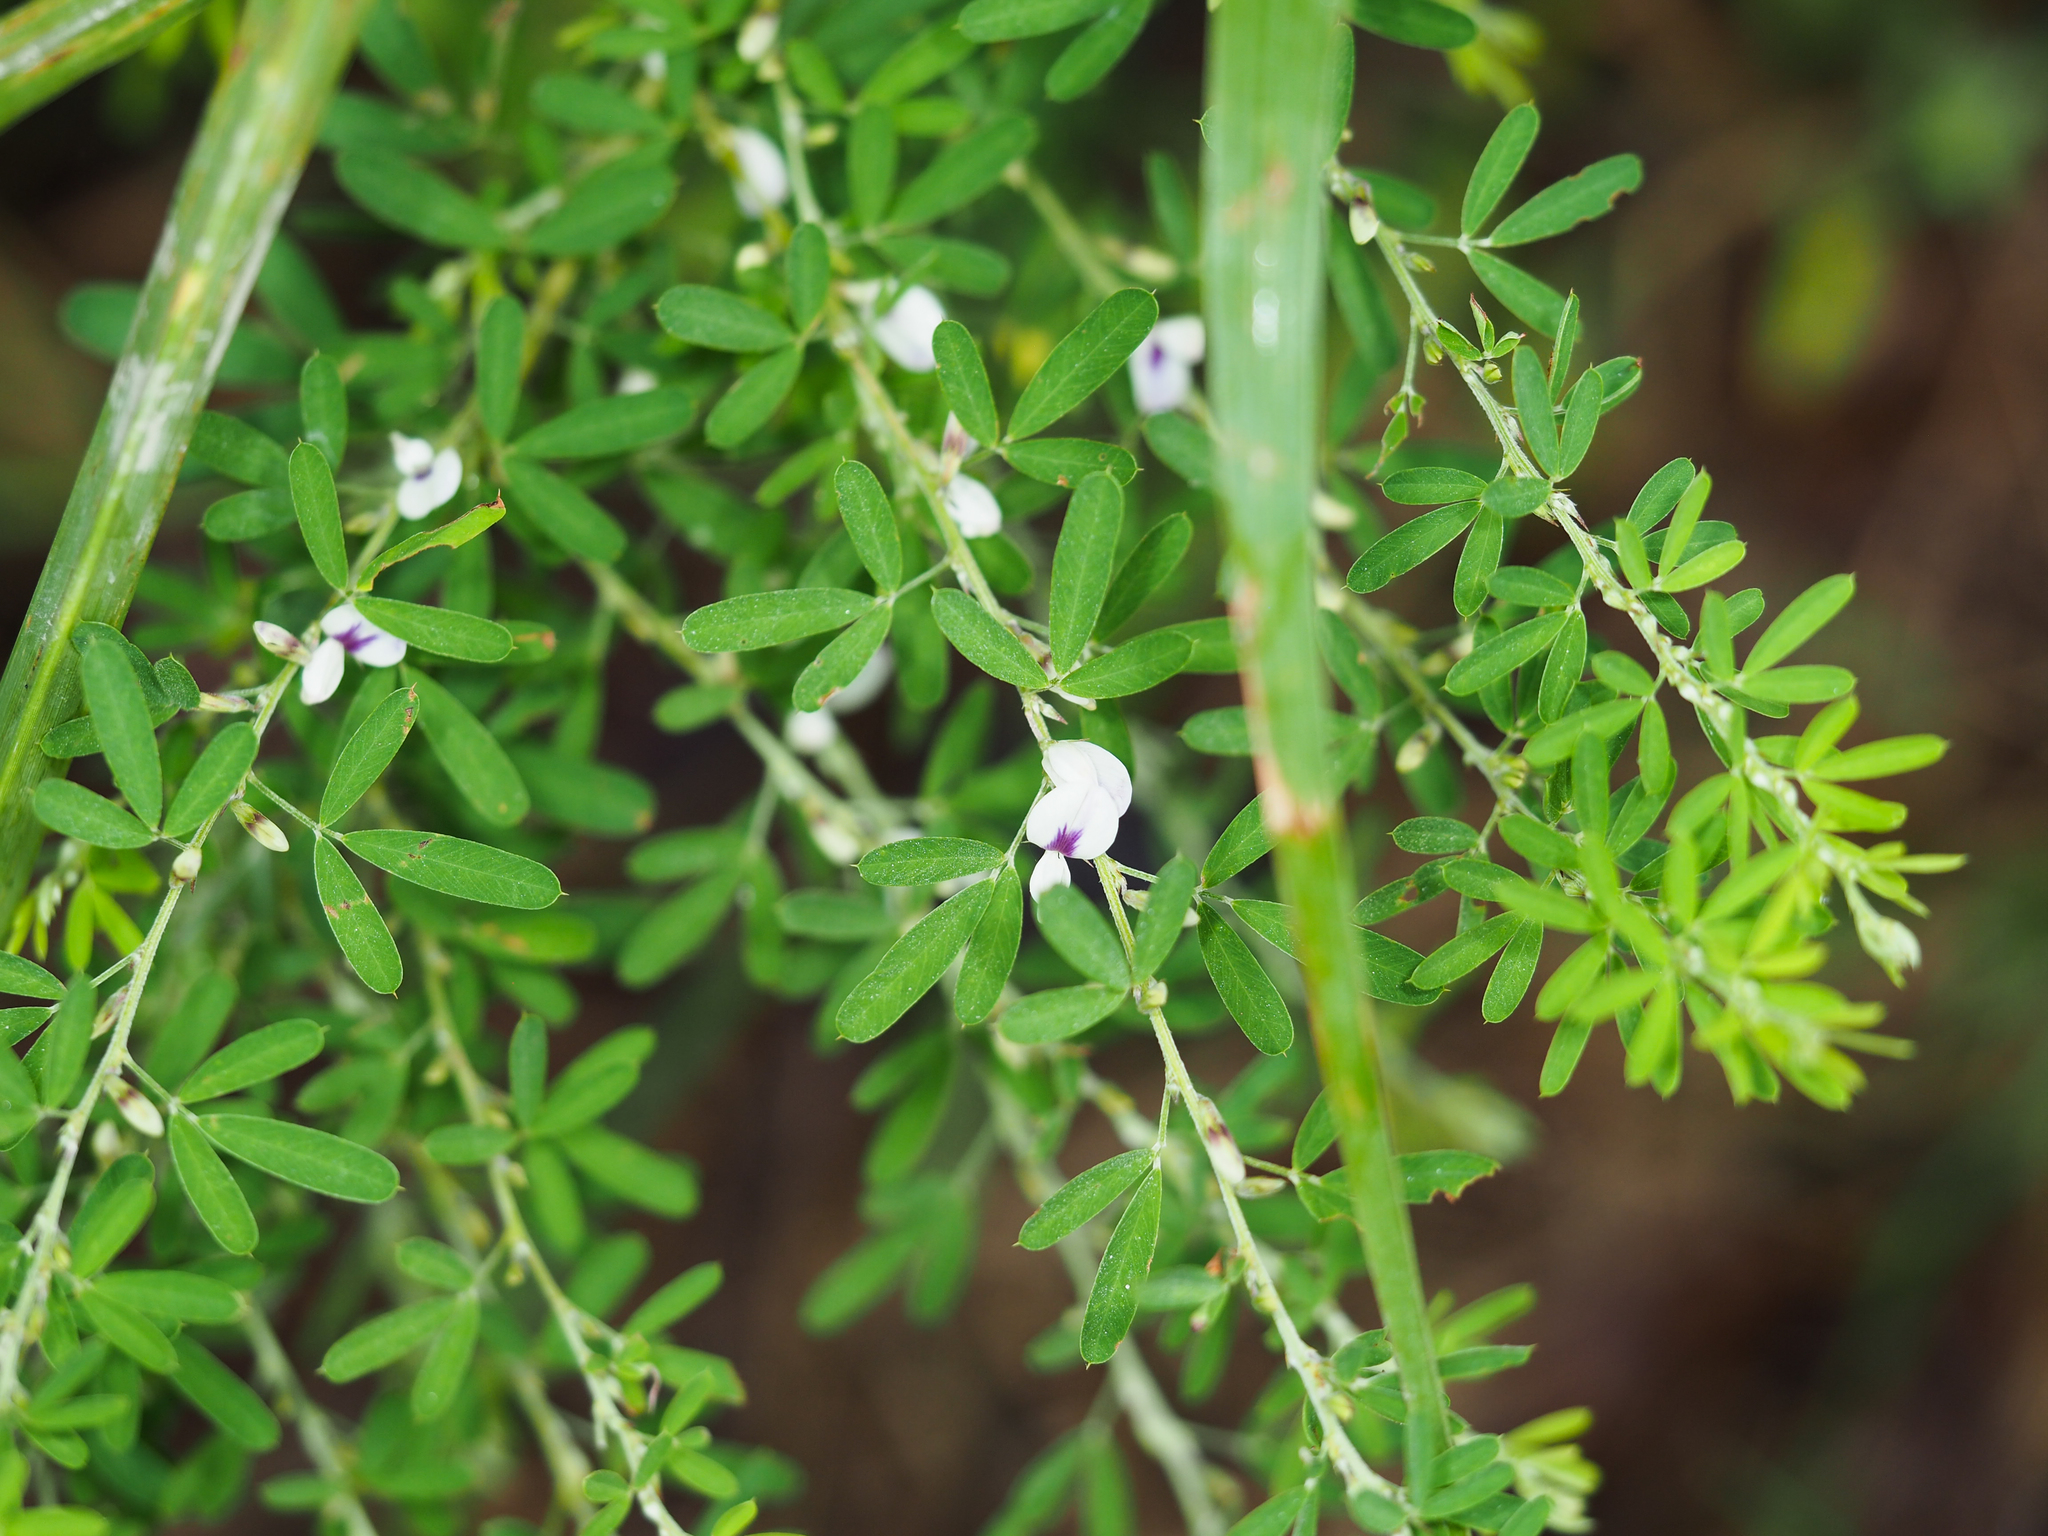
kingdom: Plantae
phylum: Tracheophyta
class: Magnoliopsida
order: Fabales
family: Fabaceae
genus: Lespedeza
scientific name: Lespedeza cuneata
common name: Chinese bush-clover
